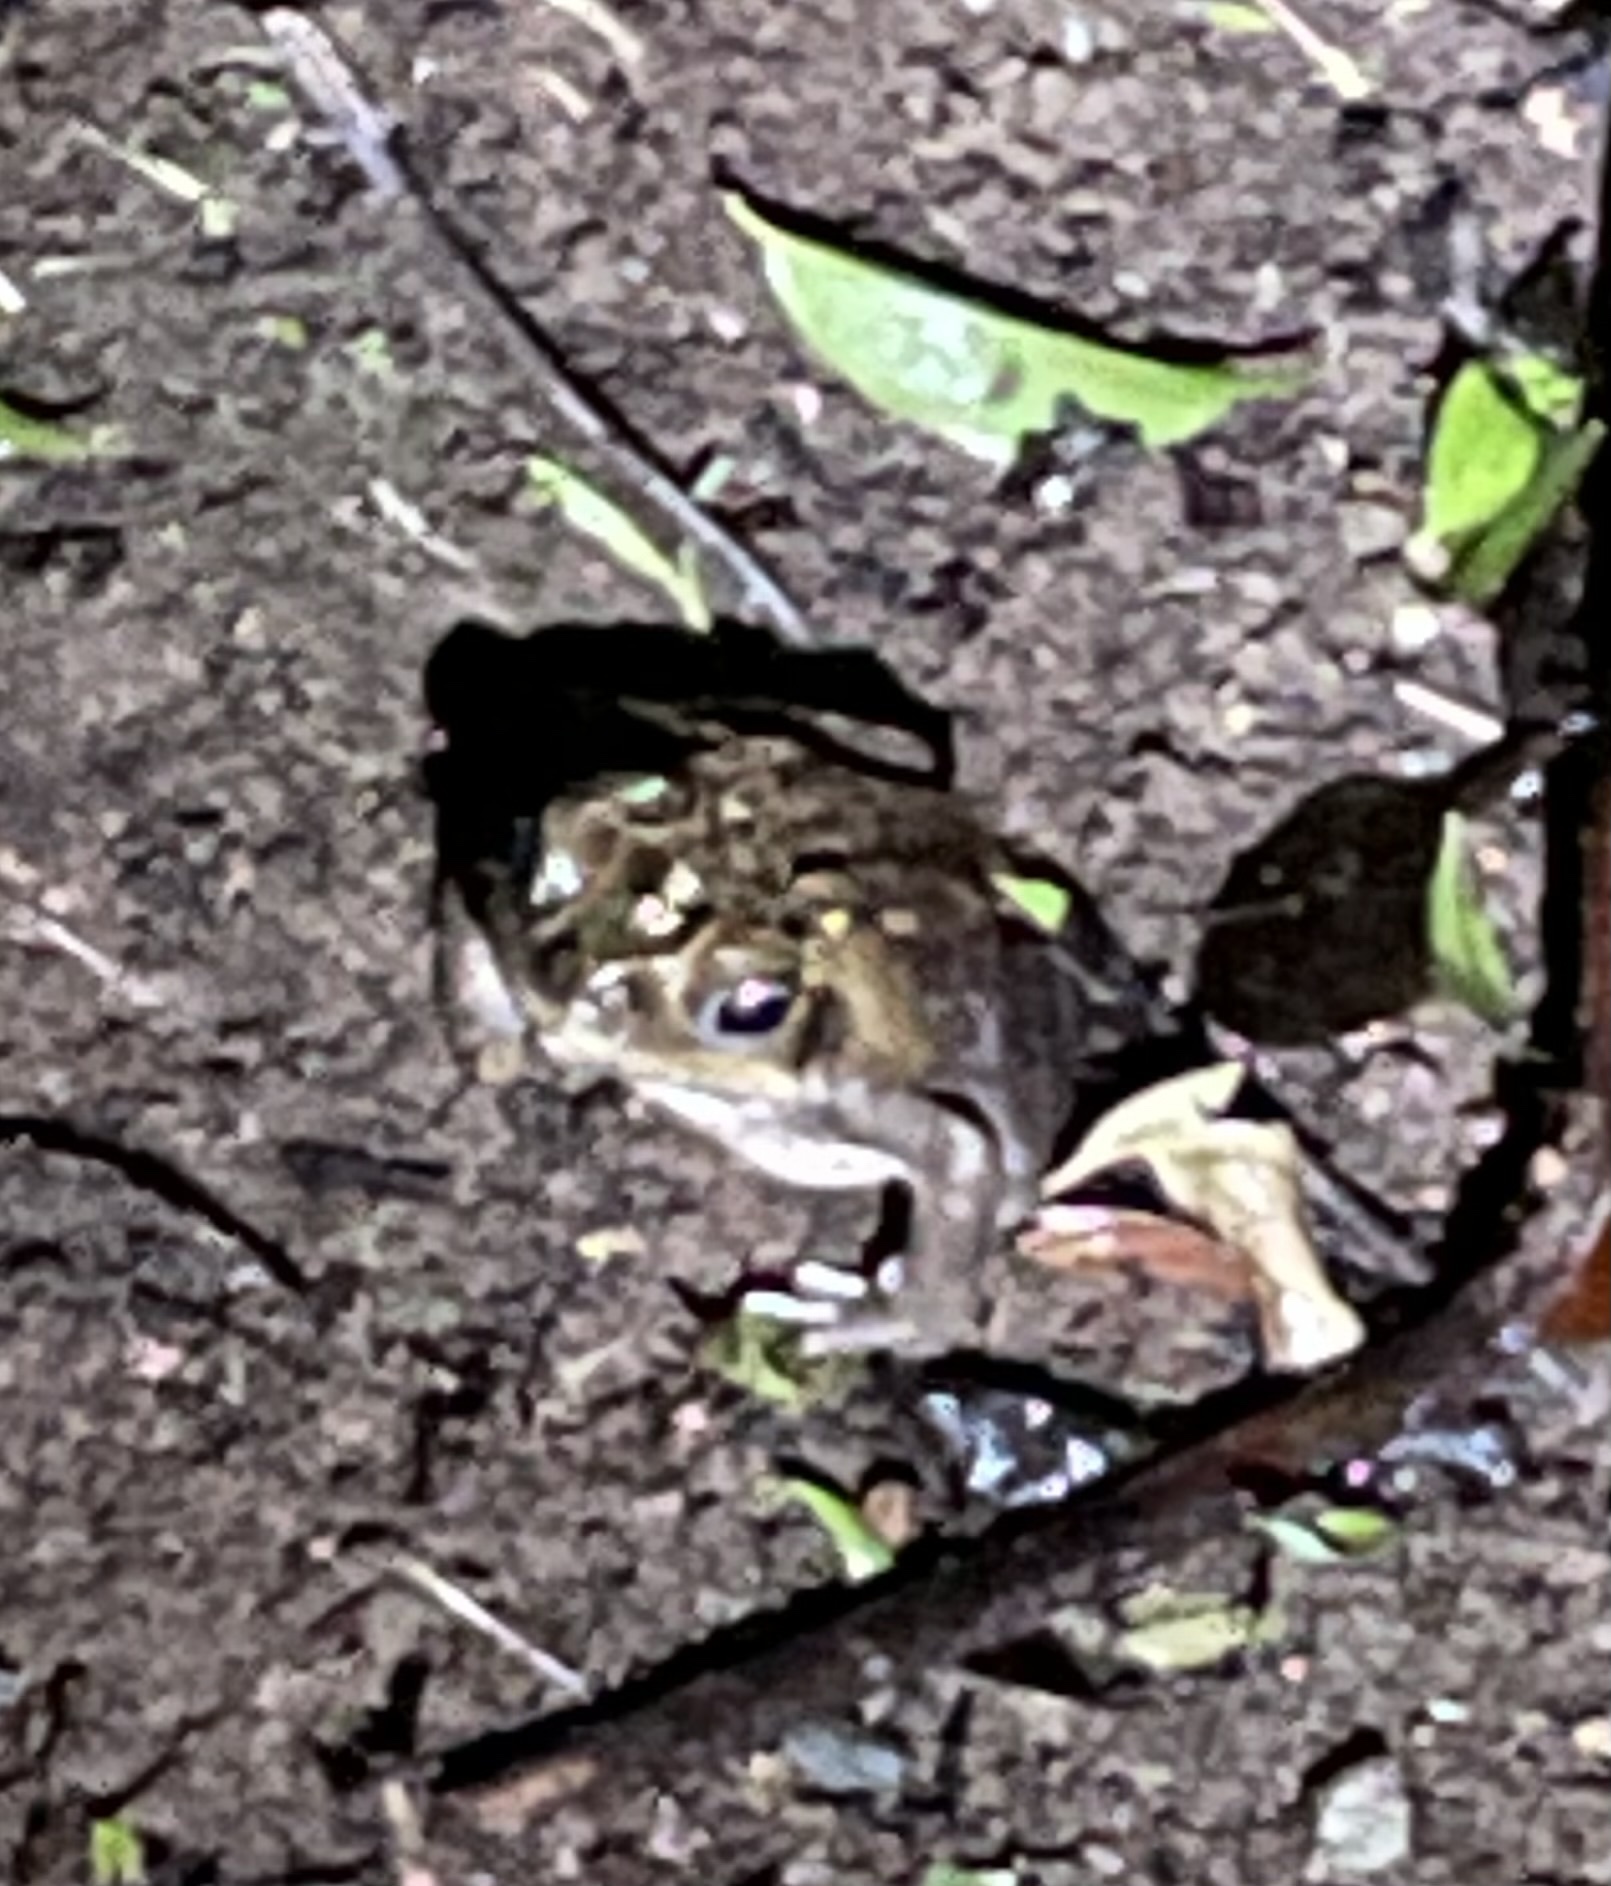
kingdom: Animalia
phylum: Chordata
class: Amphibia
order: Anura
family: Bufonidae
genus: Rhinella
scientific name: Rhinella horribilis
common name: Mesoamerican cane toad
